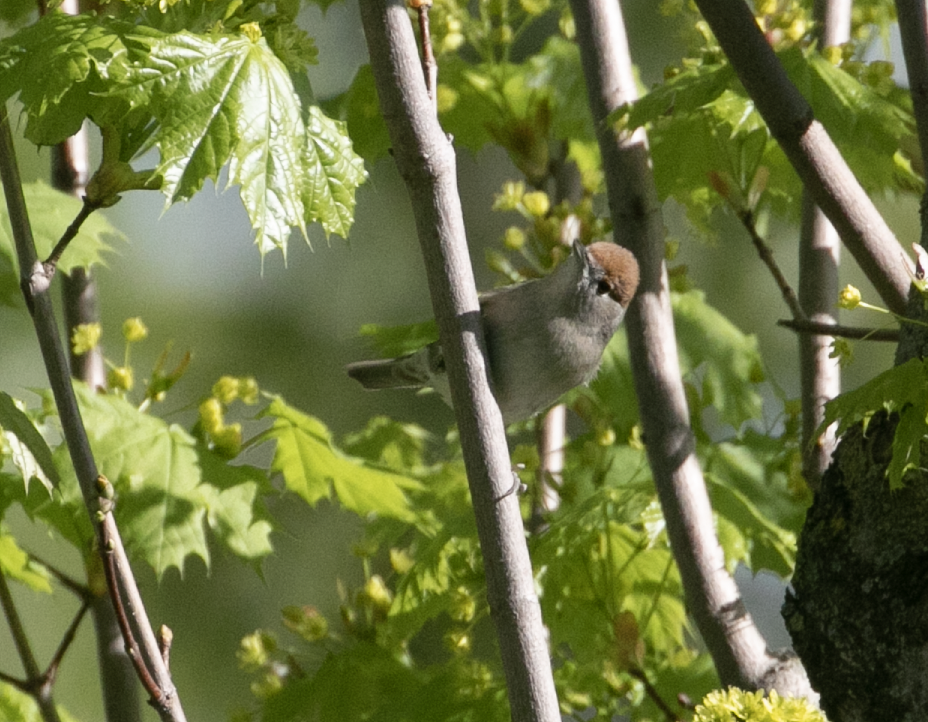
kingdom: Animalia
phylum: Chordata
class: Aves
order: Passeriformes
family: Sylviidae
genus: Sylvia
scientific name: Sylvia atricapilla
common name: Eurasian blackcap
